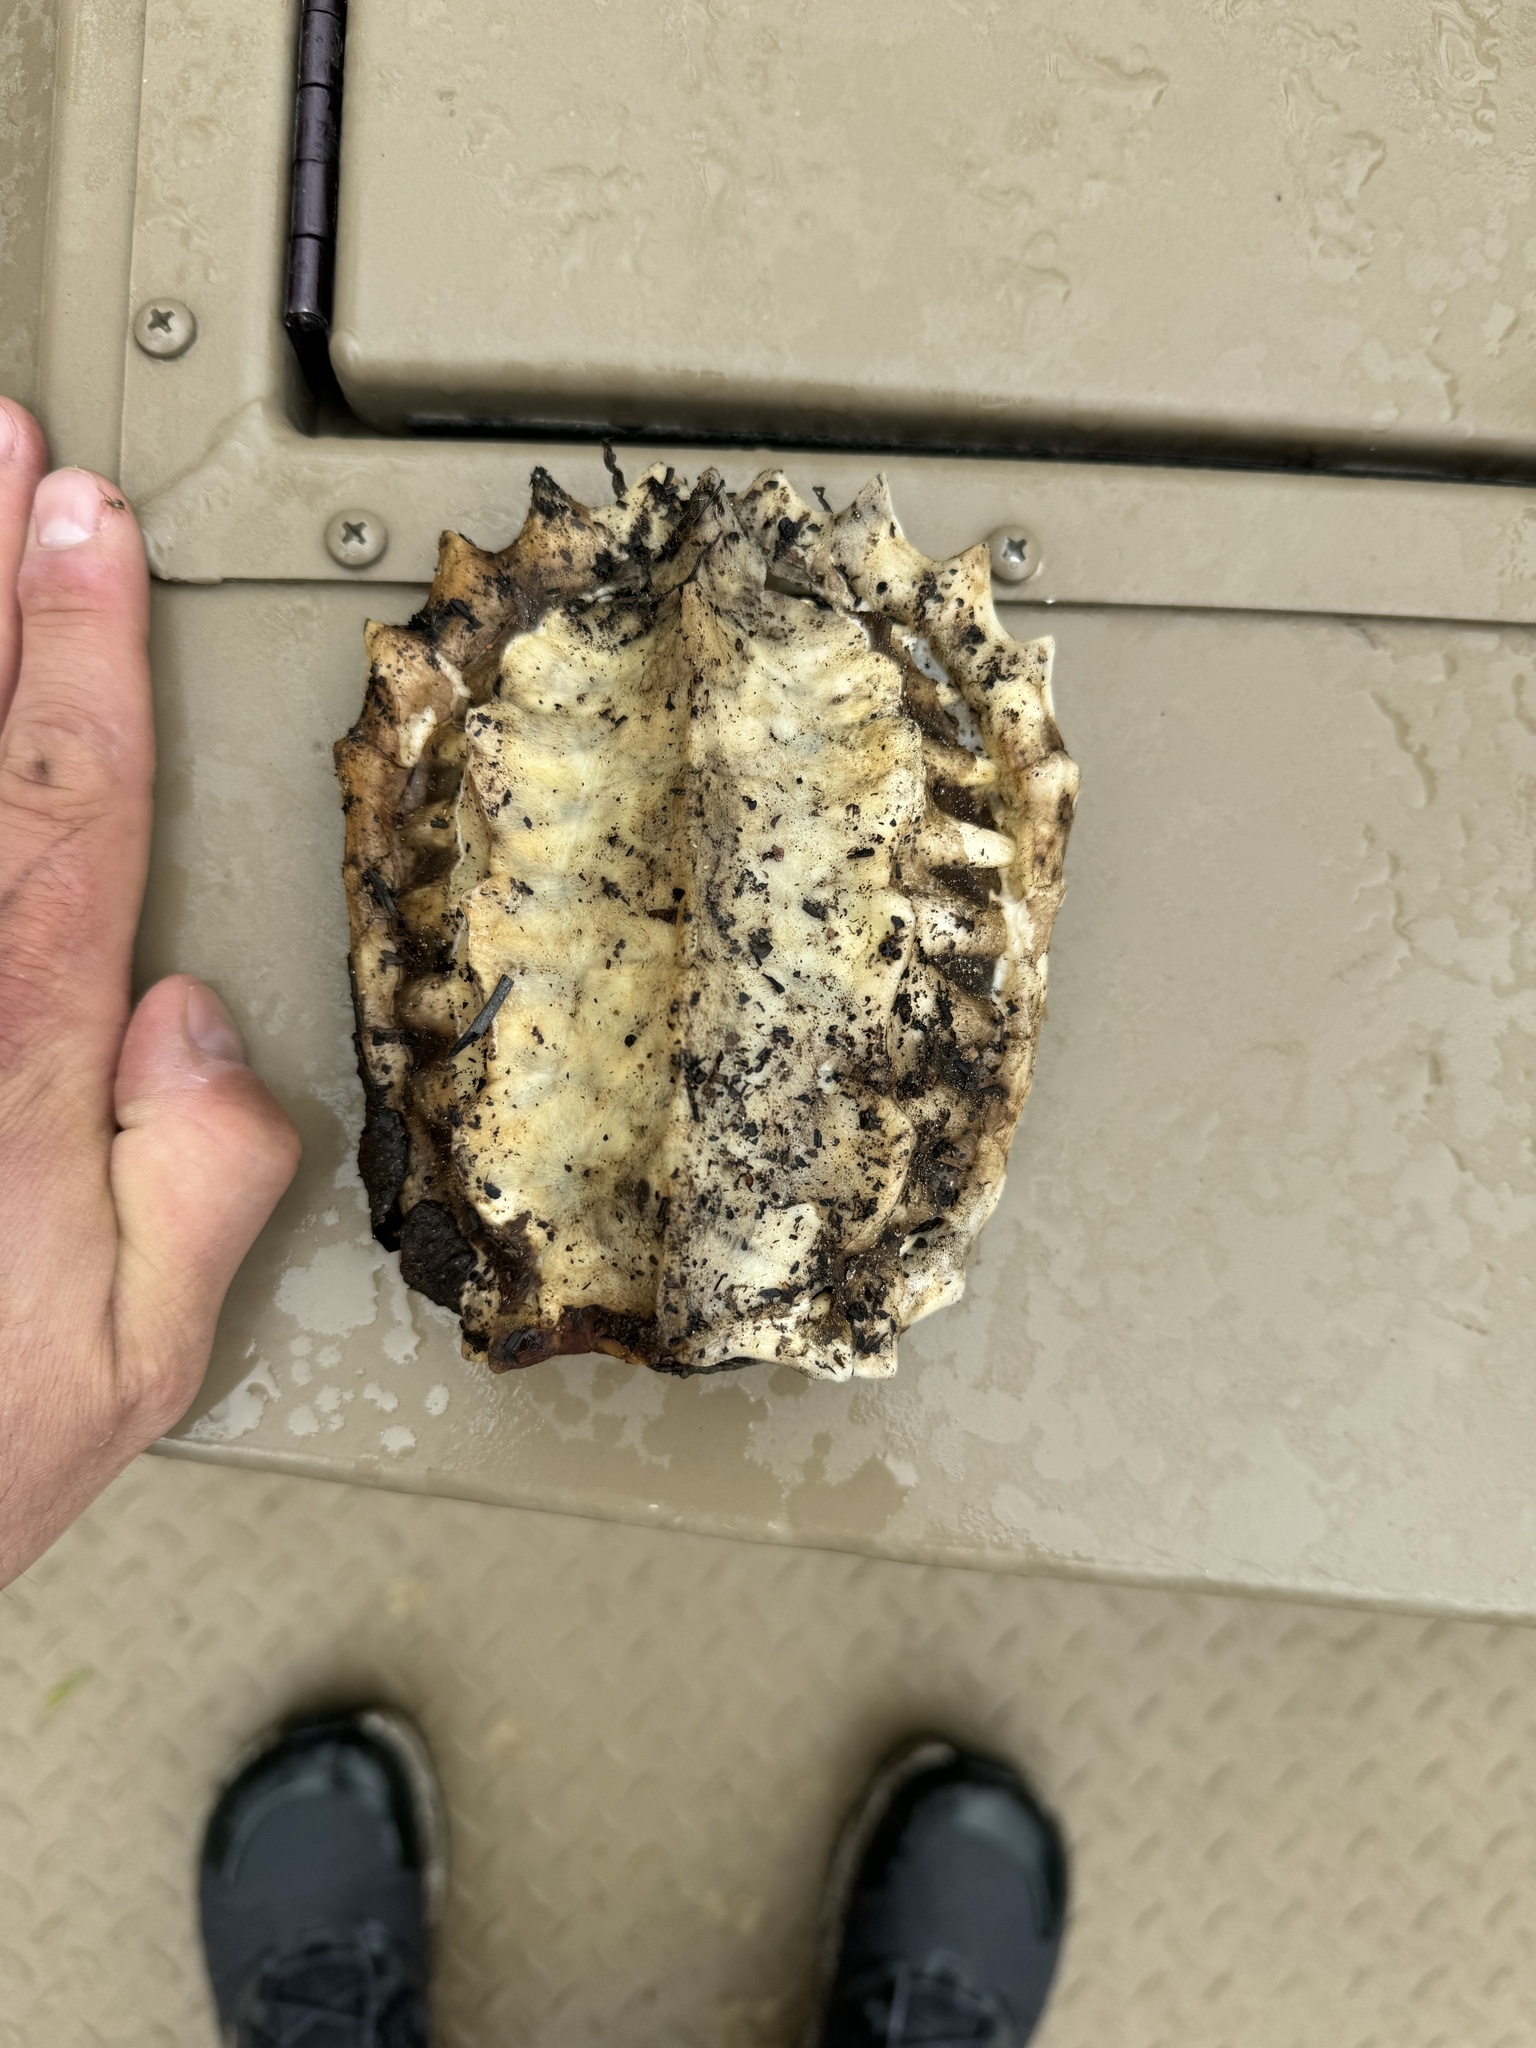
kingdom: Animalia
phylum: Chordata
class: Testudines
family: Chelydridae
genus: Macrochelys
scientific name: Macrochelys temminckii
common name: Alligator snapping turtle
